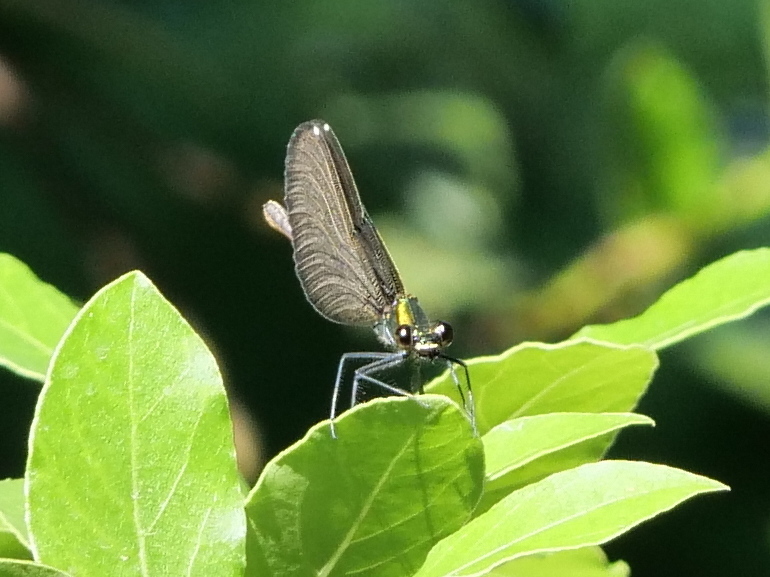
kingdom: Animalia
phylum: Arthropoda
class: Insecta
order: Odonata
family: Calopterygidae
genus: Calopteryx
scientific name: Calopteryx virgo
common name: Beautiful demoiselle
